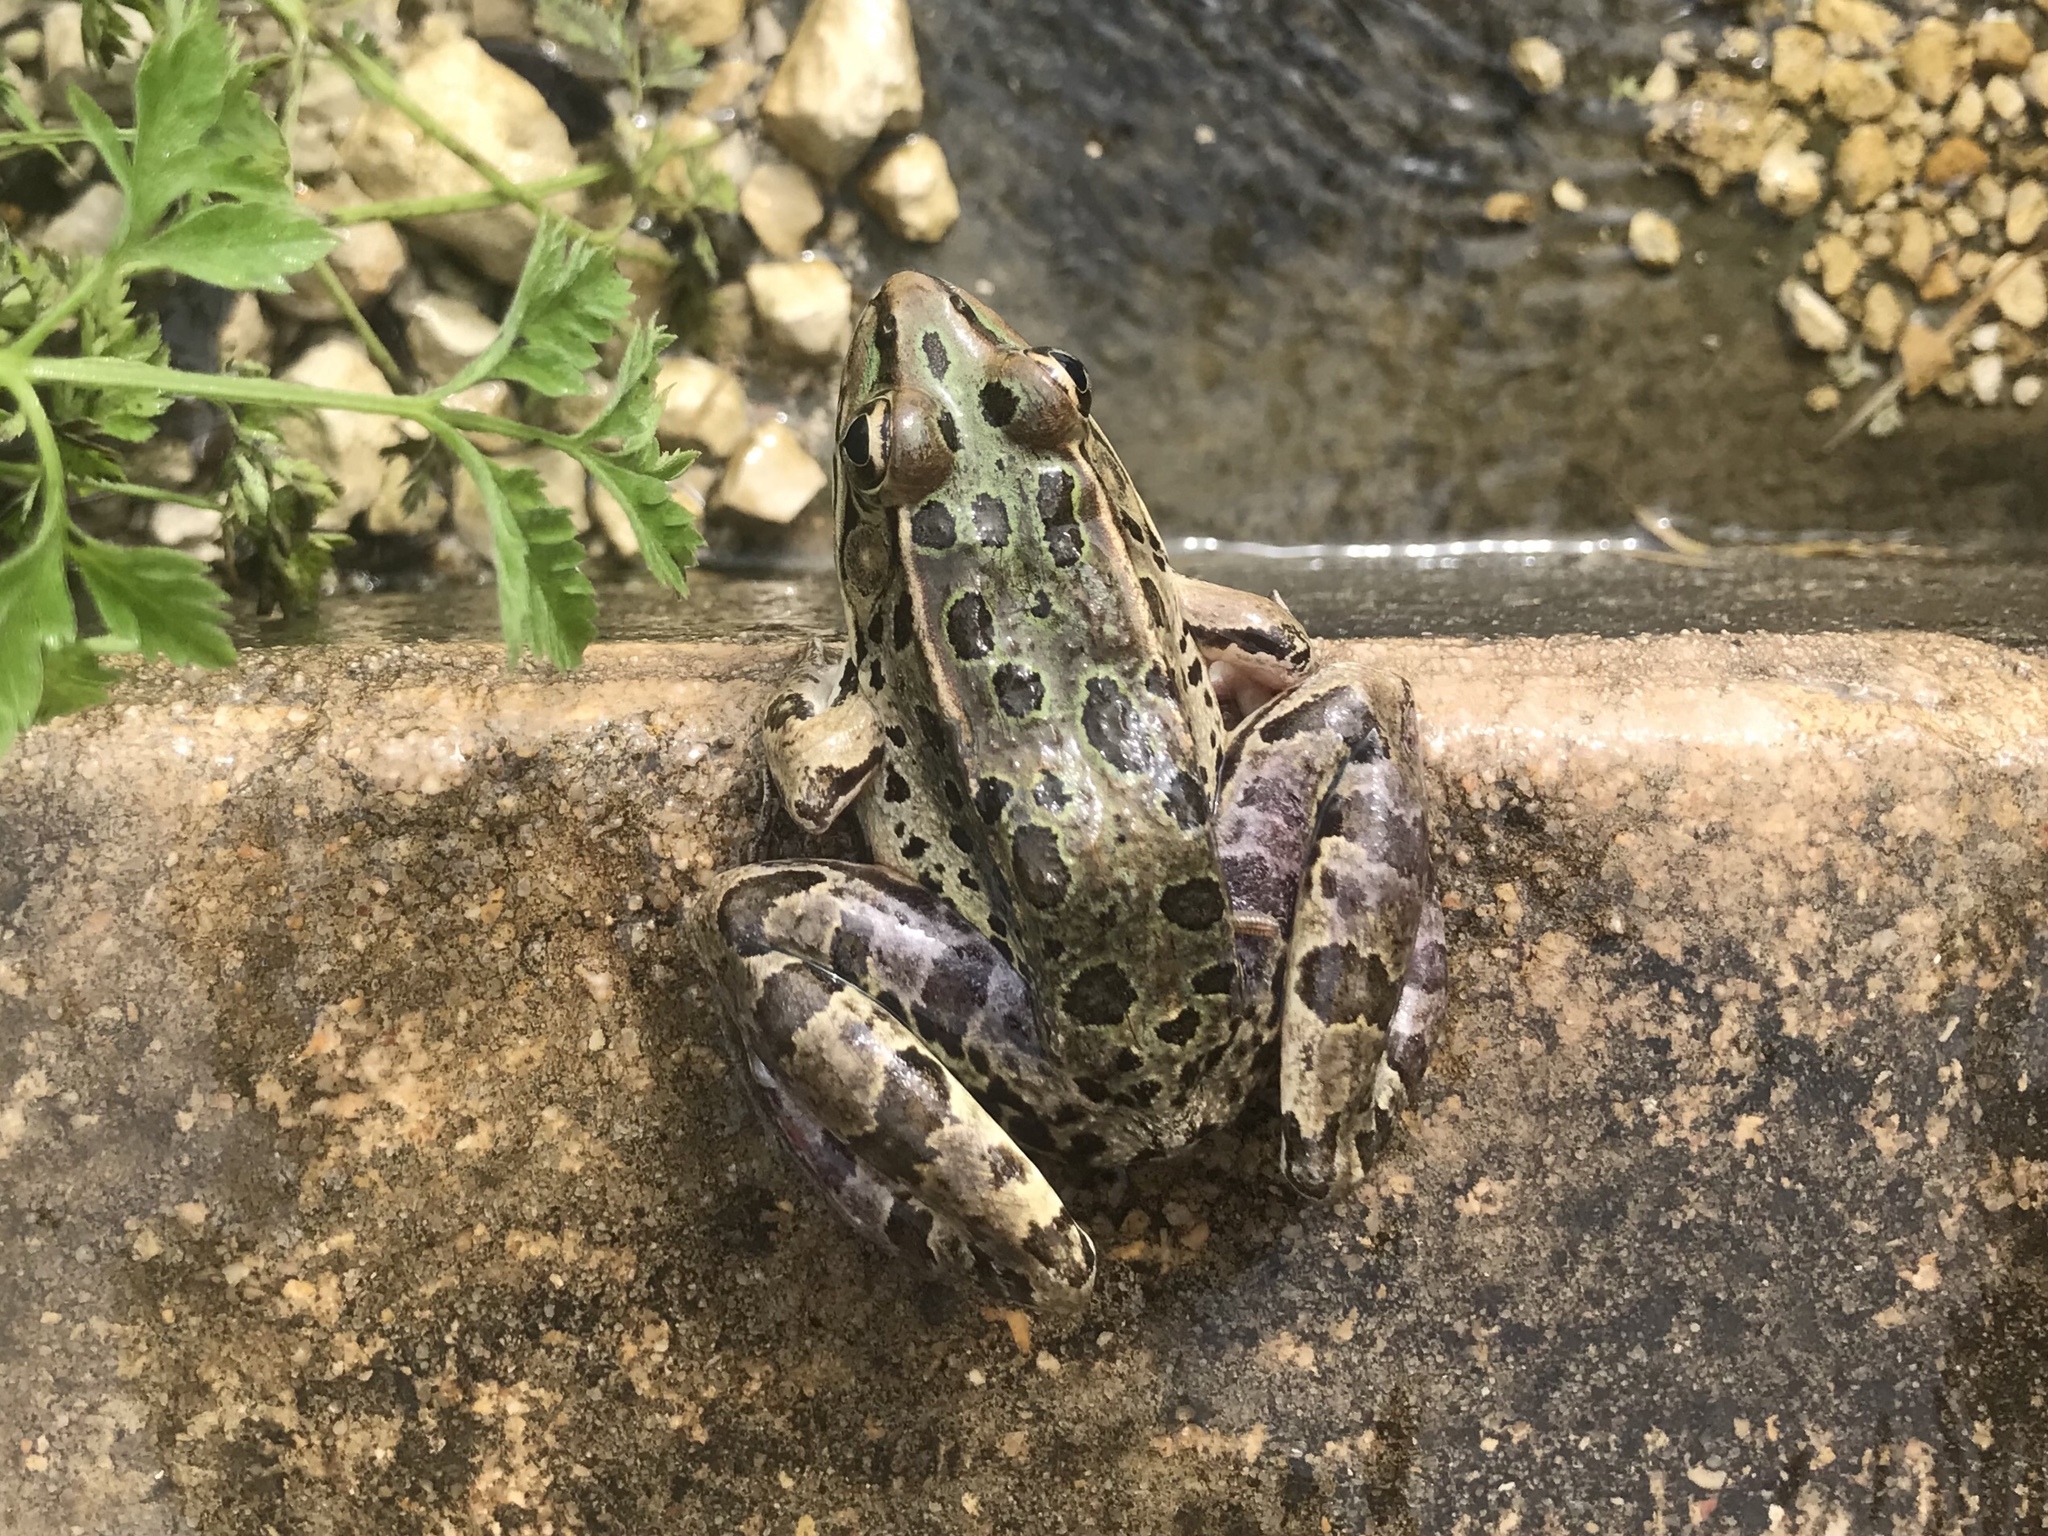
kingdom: Animalia
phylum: Chordata
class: Amphibia
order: Anura
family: Ranidae
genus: Lithobates
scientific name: Lithobates berlandieri
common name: Rio grande leopard frog
